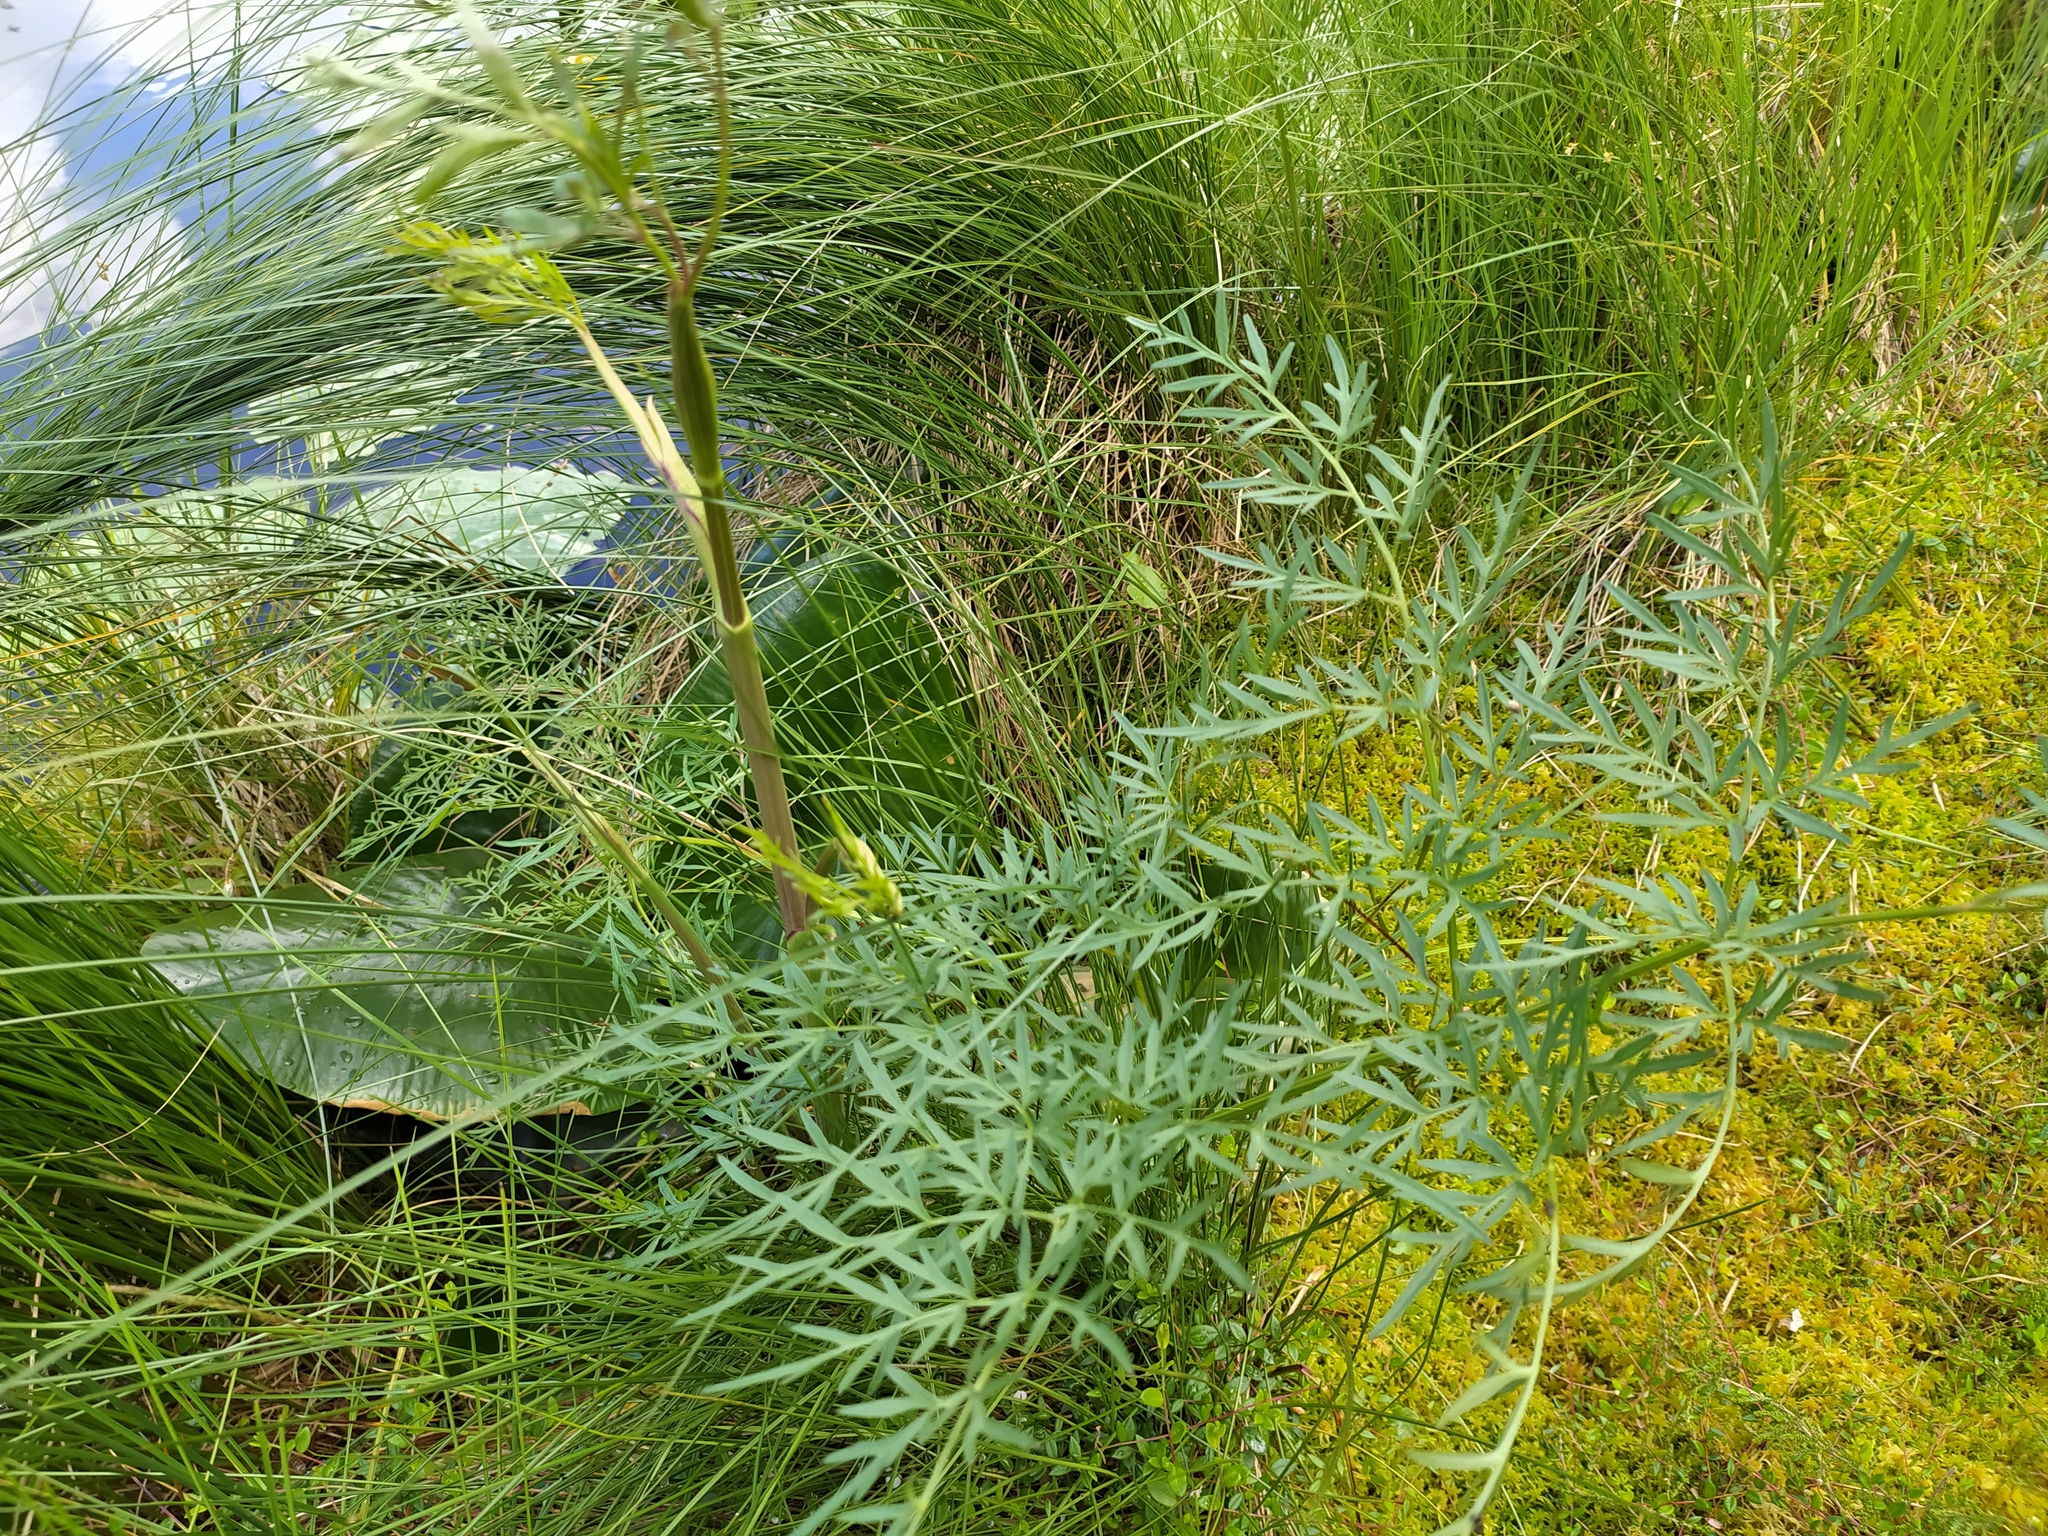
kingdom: Plantae
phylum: Tracheophyta
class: Magnoliopsida
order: Apiales
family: Apiaceae
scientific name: Apiaceae
